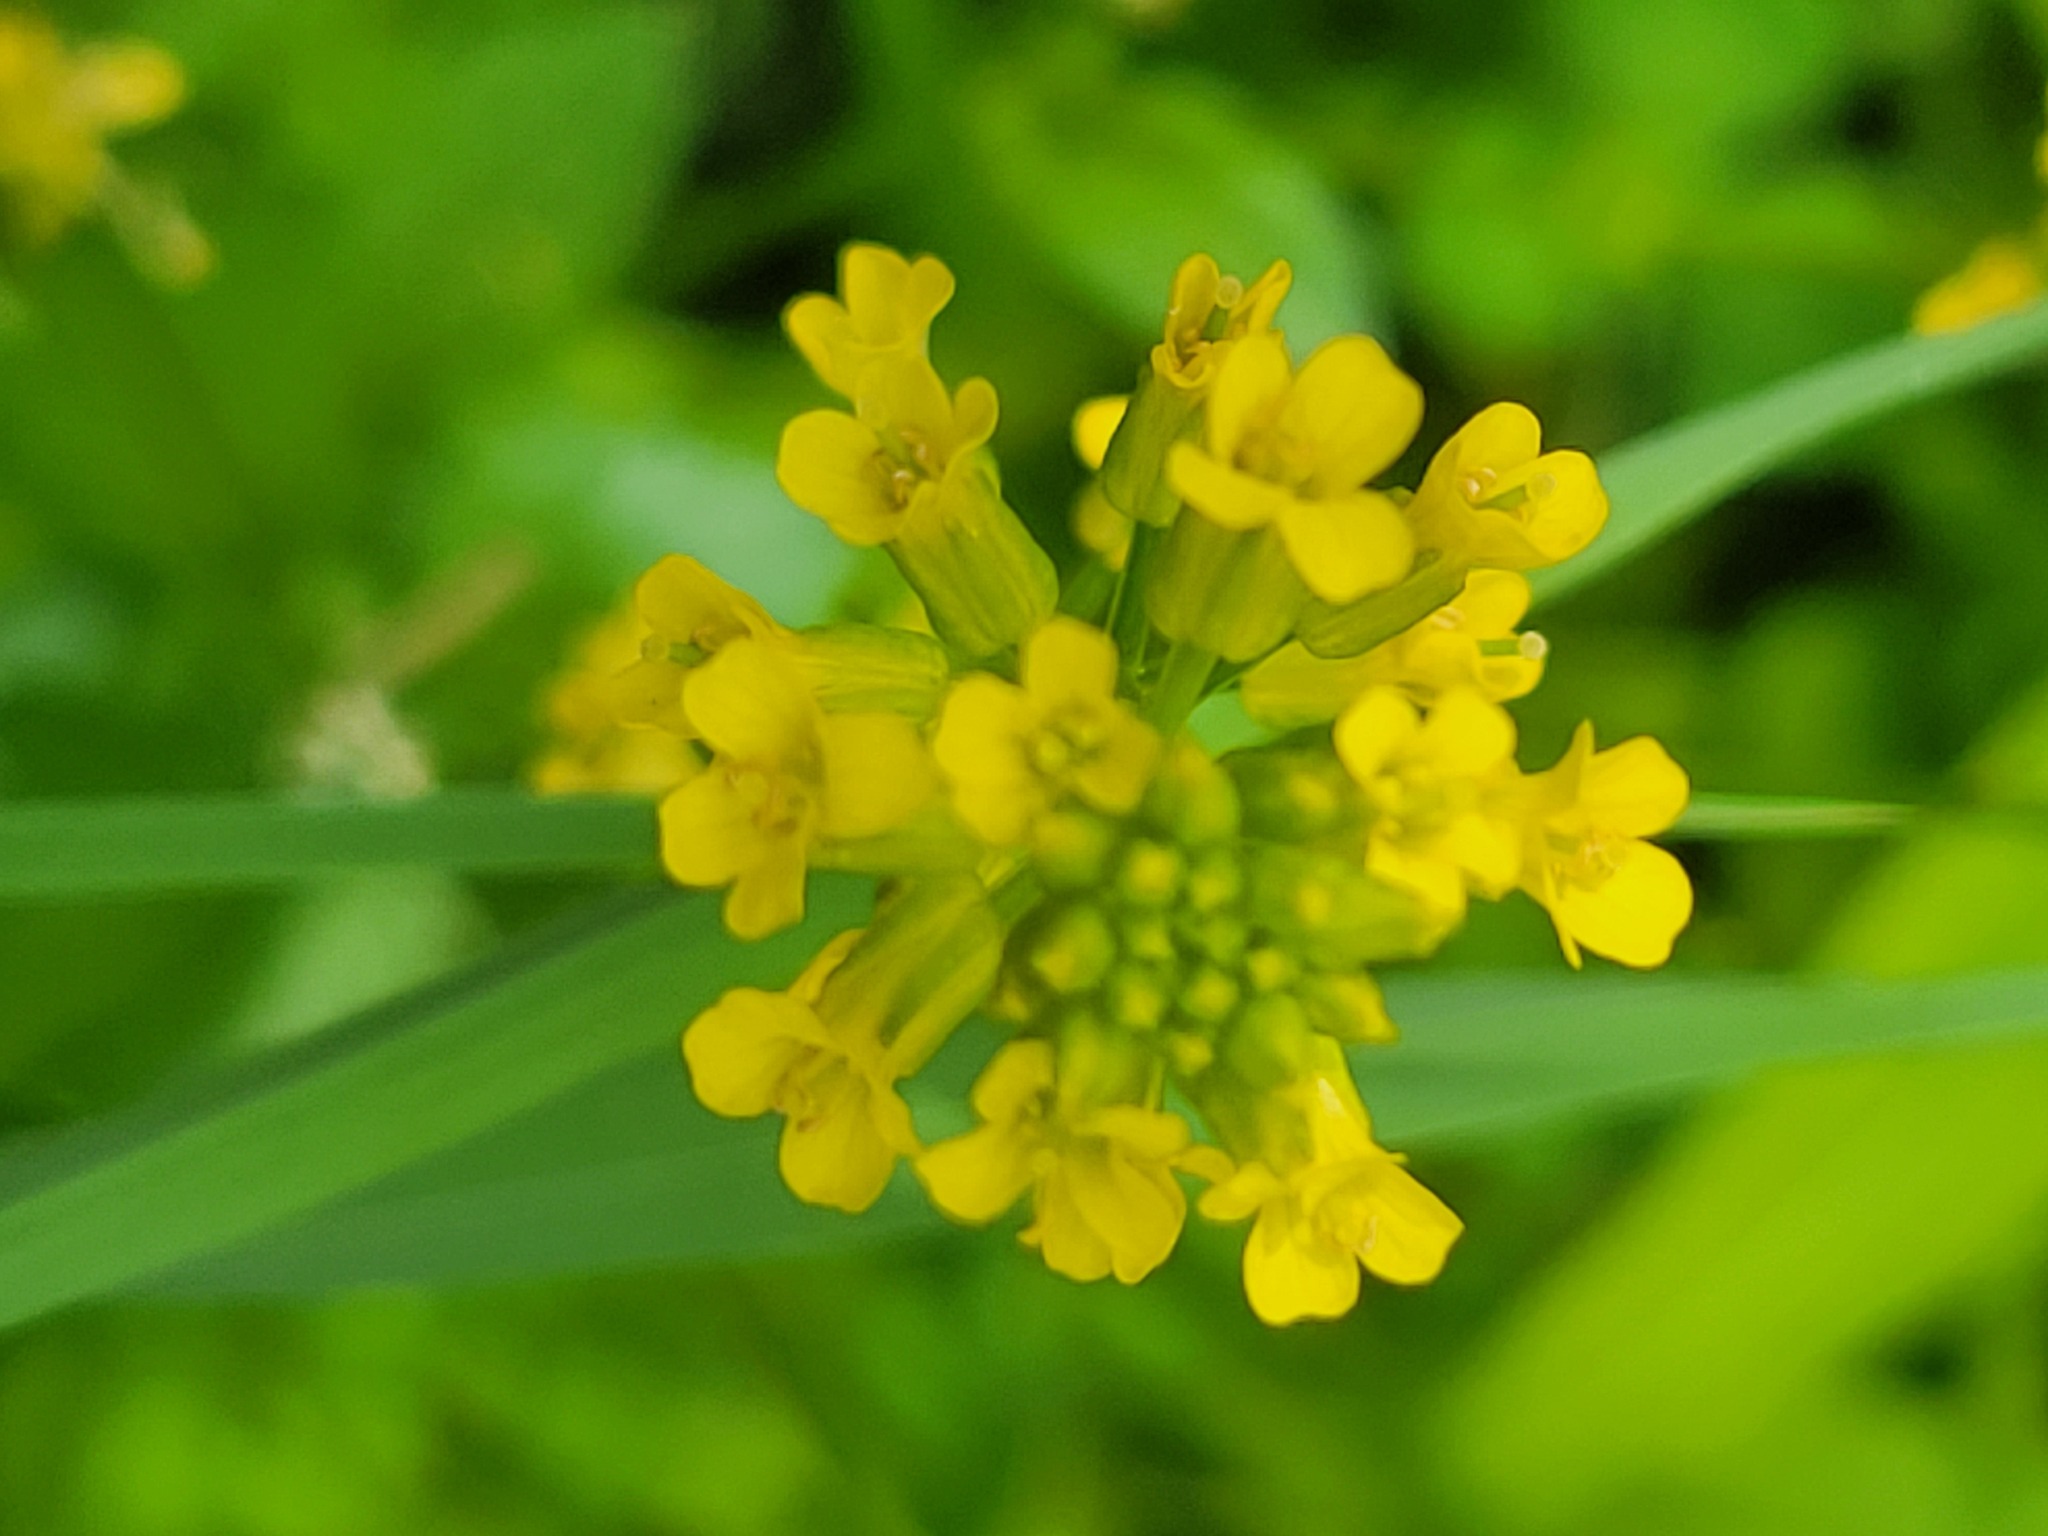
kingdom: Plantae
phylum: Tracheophyta
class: Magnoliopsida
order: Brassicales
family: Brassicaceae
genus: Barbarea
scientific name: Barbarea vulgaris
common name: Cressy-greens
